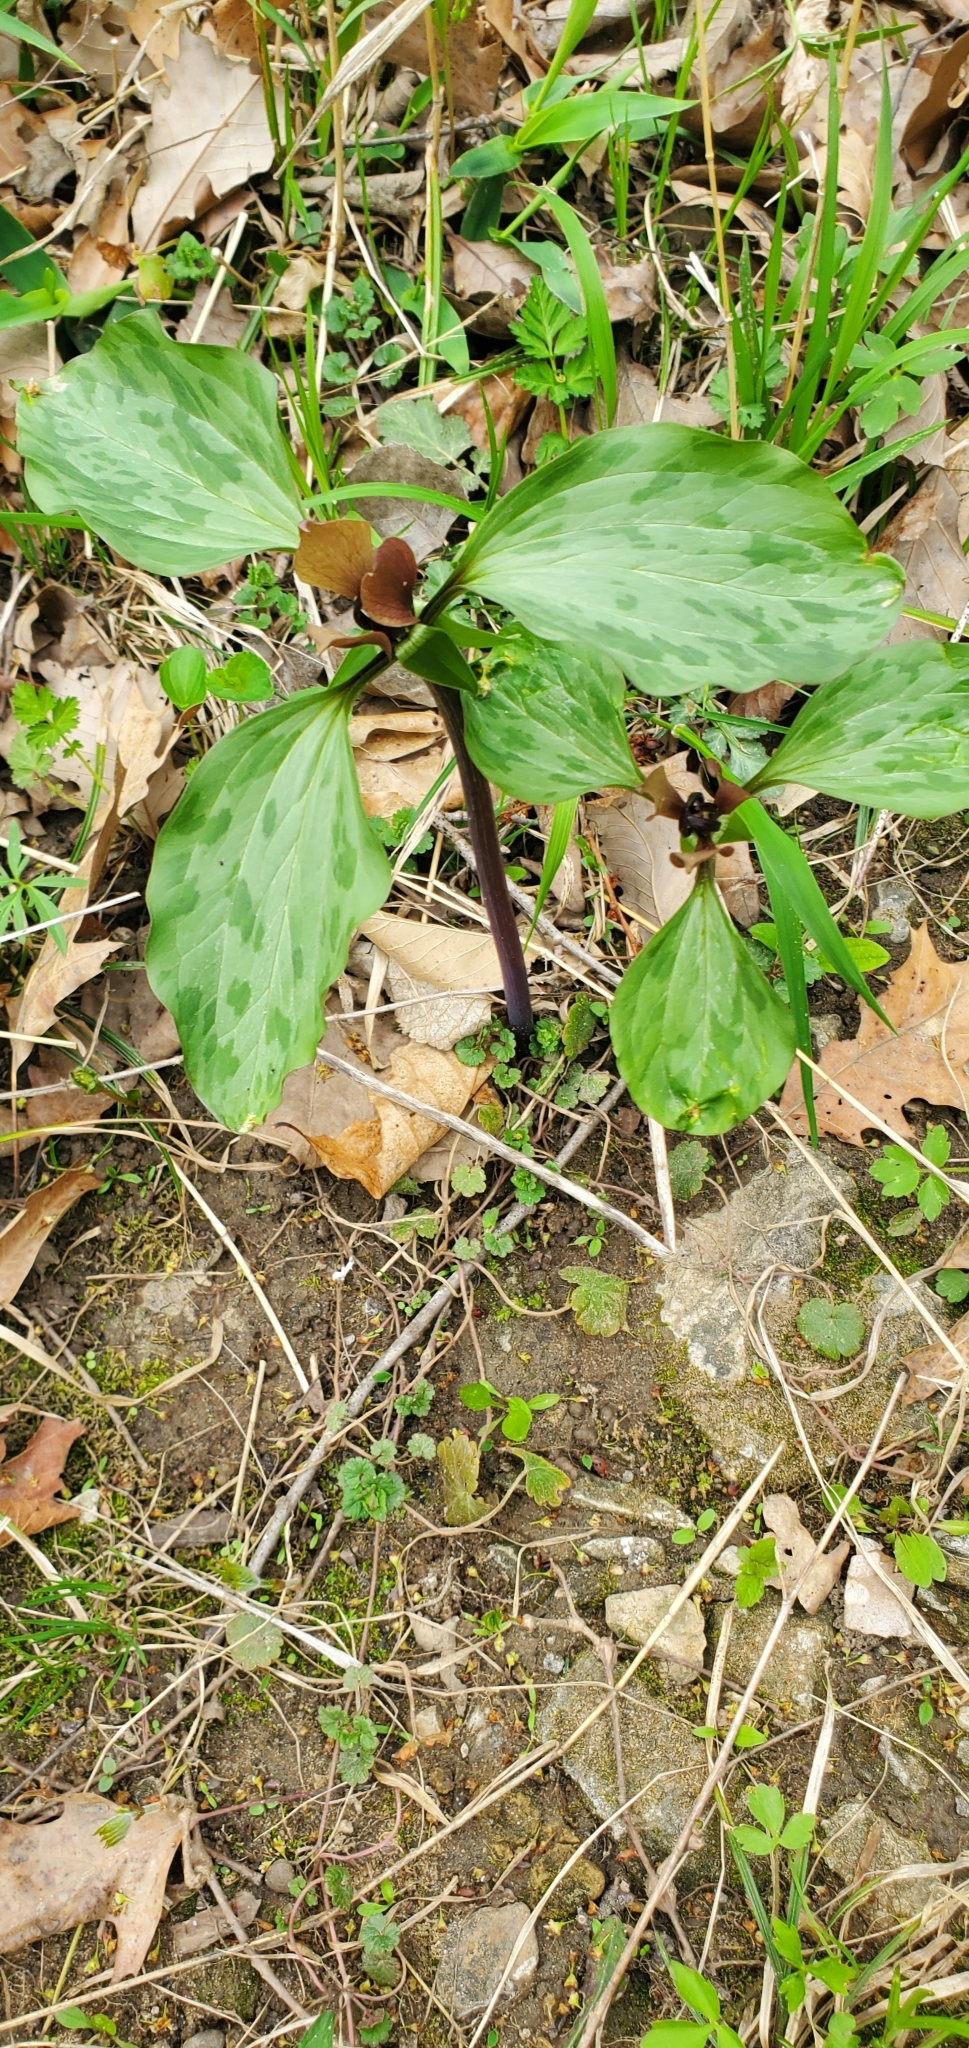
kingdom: Plantae
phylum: Tracheophyta
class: Liliopsida
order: Liliales
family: Melanthiaceae
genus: Trillium
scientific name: Trillium recurvatum
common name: Bloody butcher
